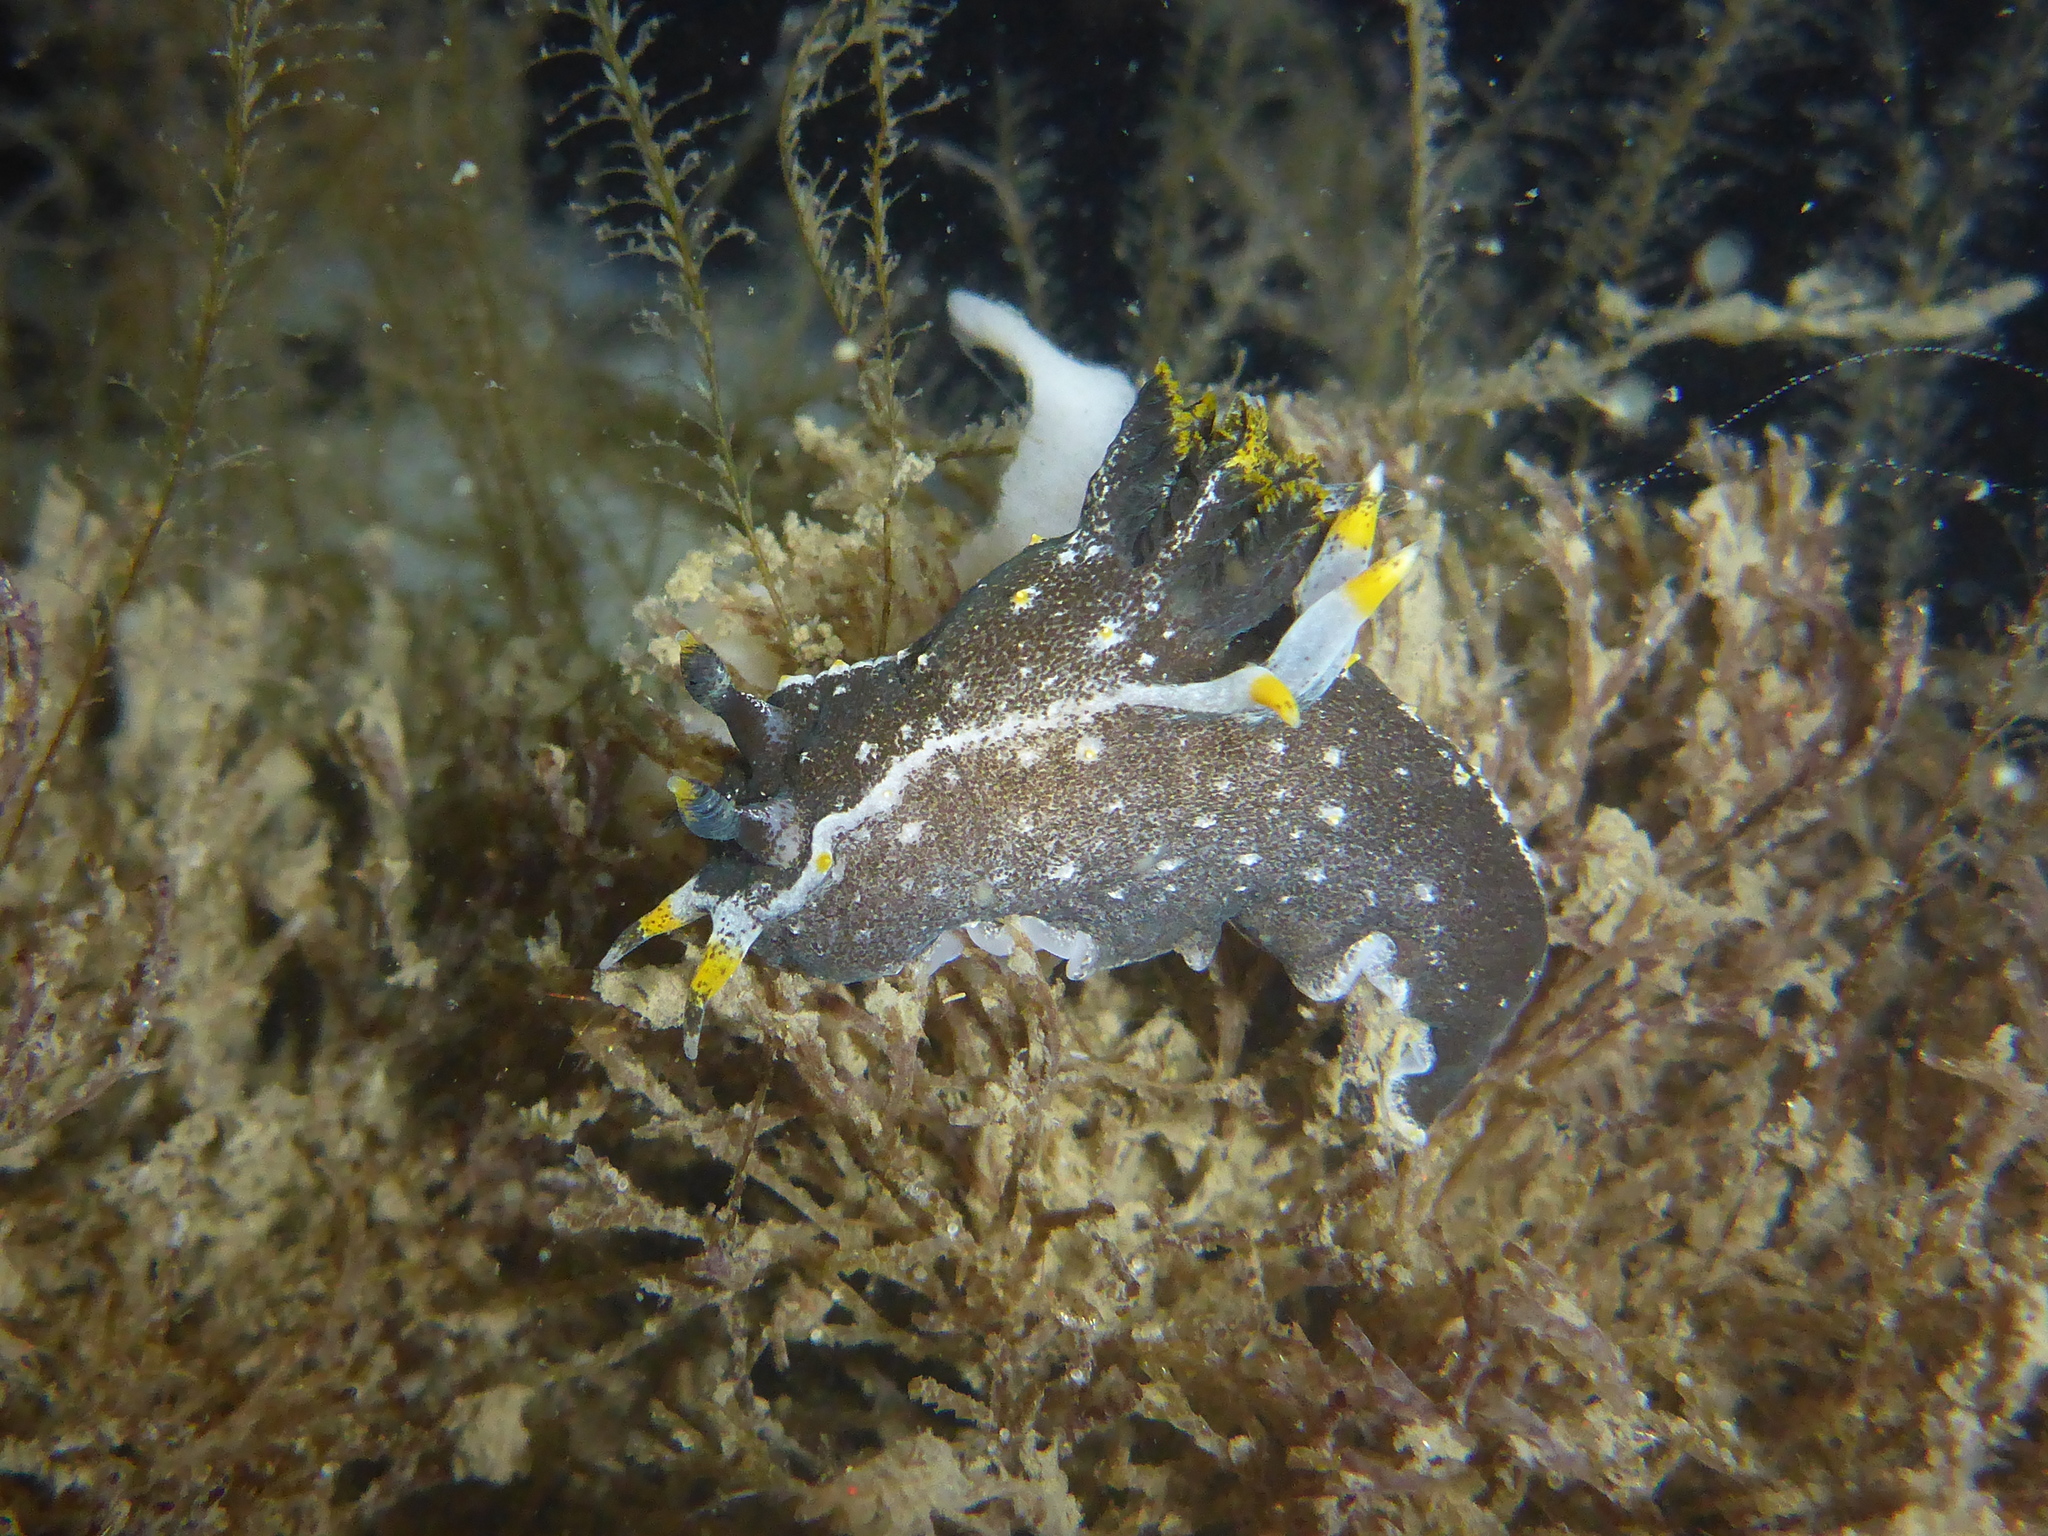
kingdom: Animalia
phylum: Mollusca
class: Gastropoda
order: Nudibranchia
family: Polyceridae
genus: Polycera
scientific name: Polycera hedgpethi
